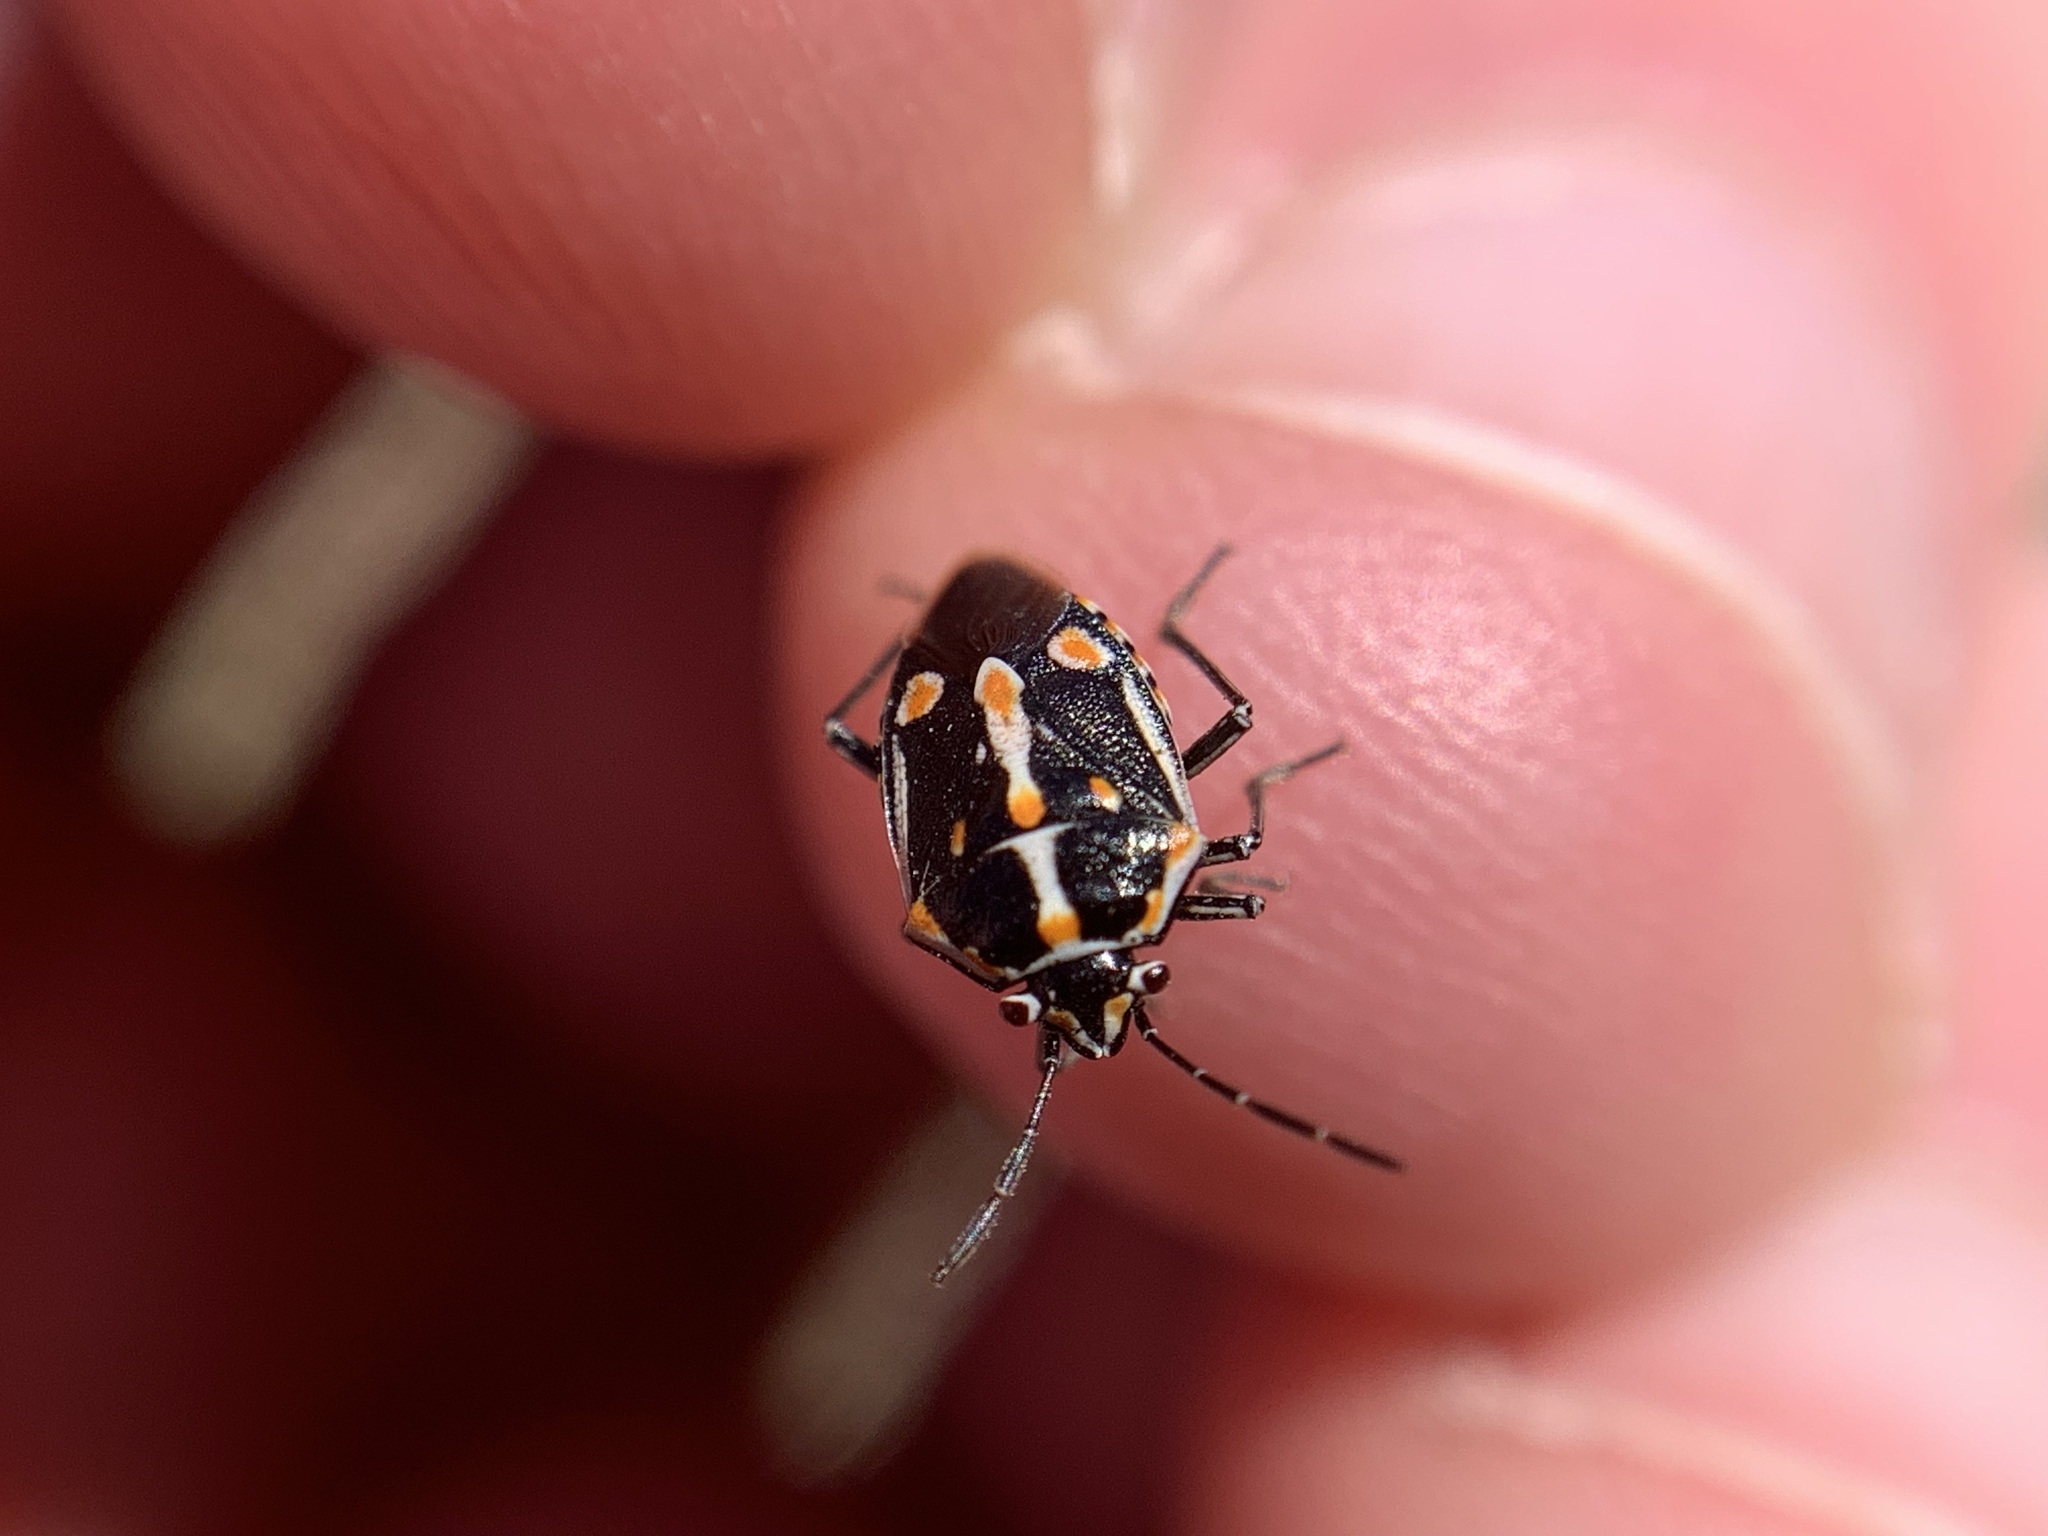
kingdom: Animalia
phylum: Arthropoda
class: Insecta
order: Hemiptera
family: Pentatomidae
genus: Bagrada
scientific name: Bagrada hilaris
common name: Bagrada bug
